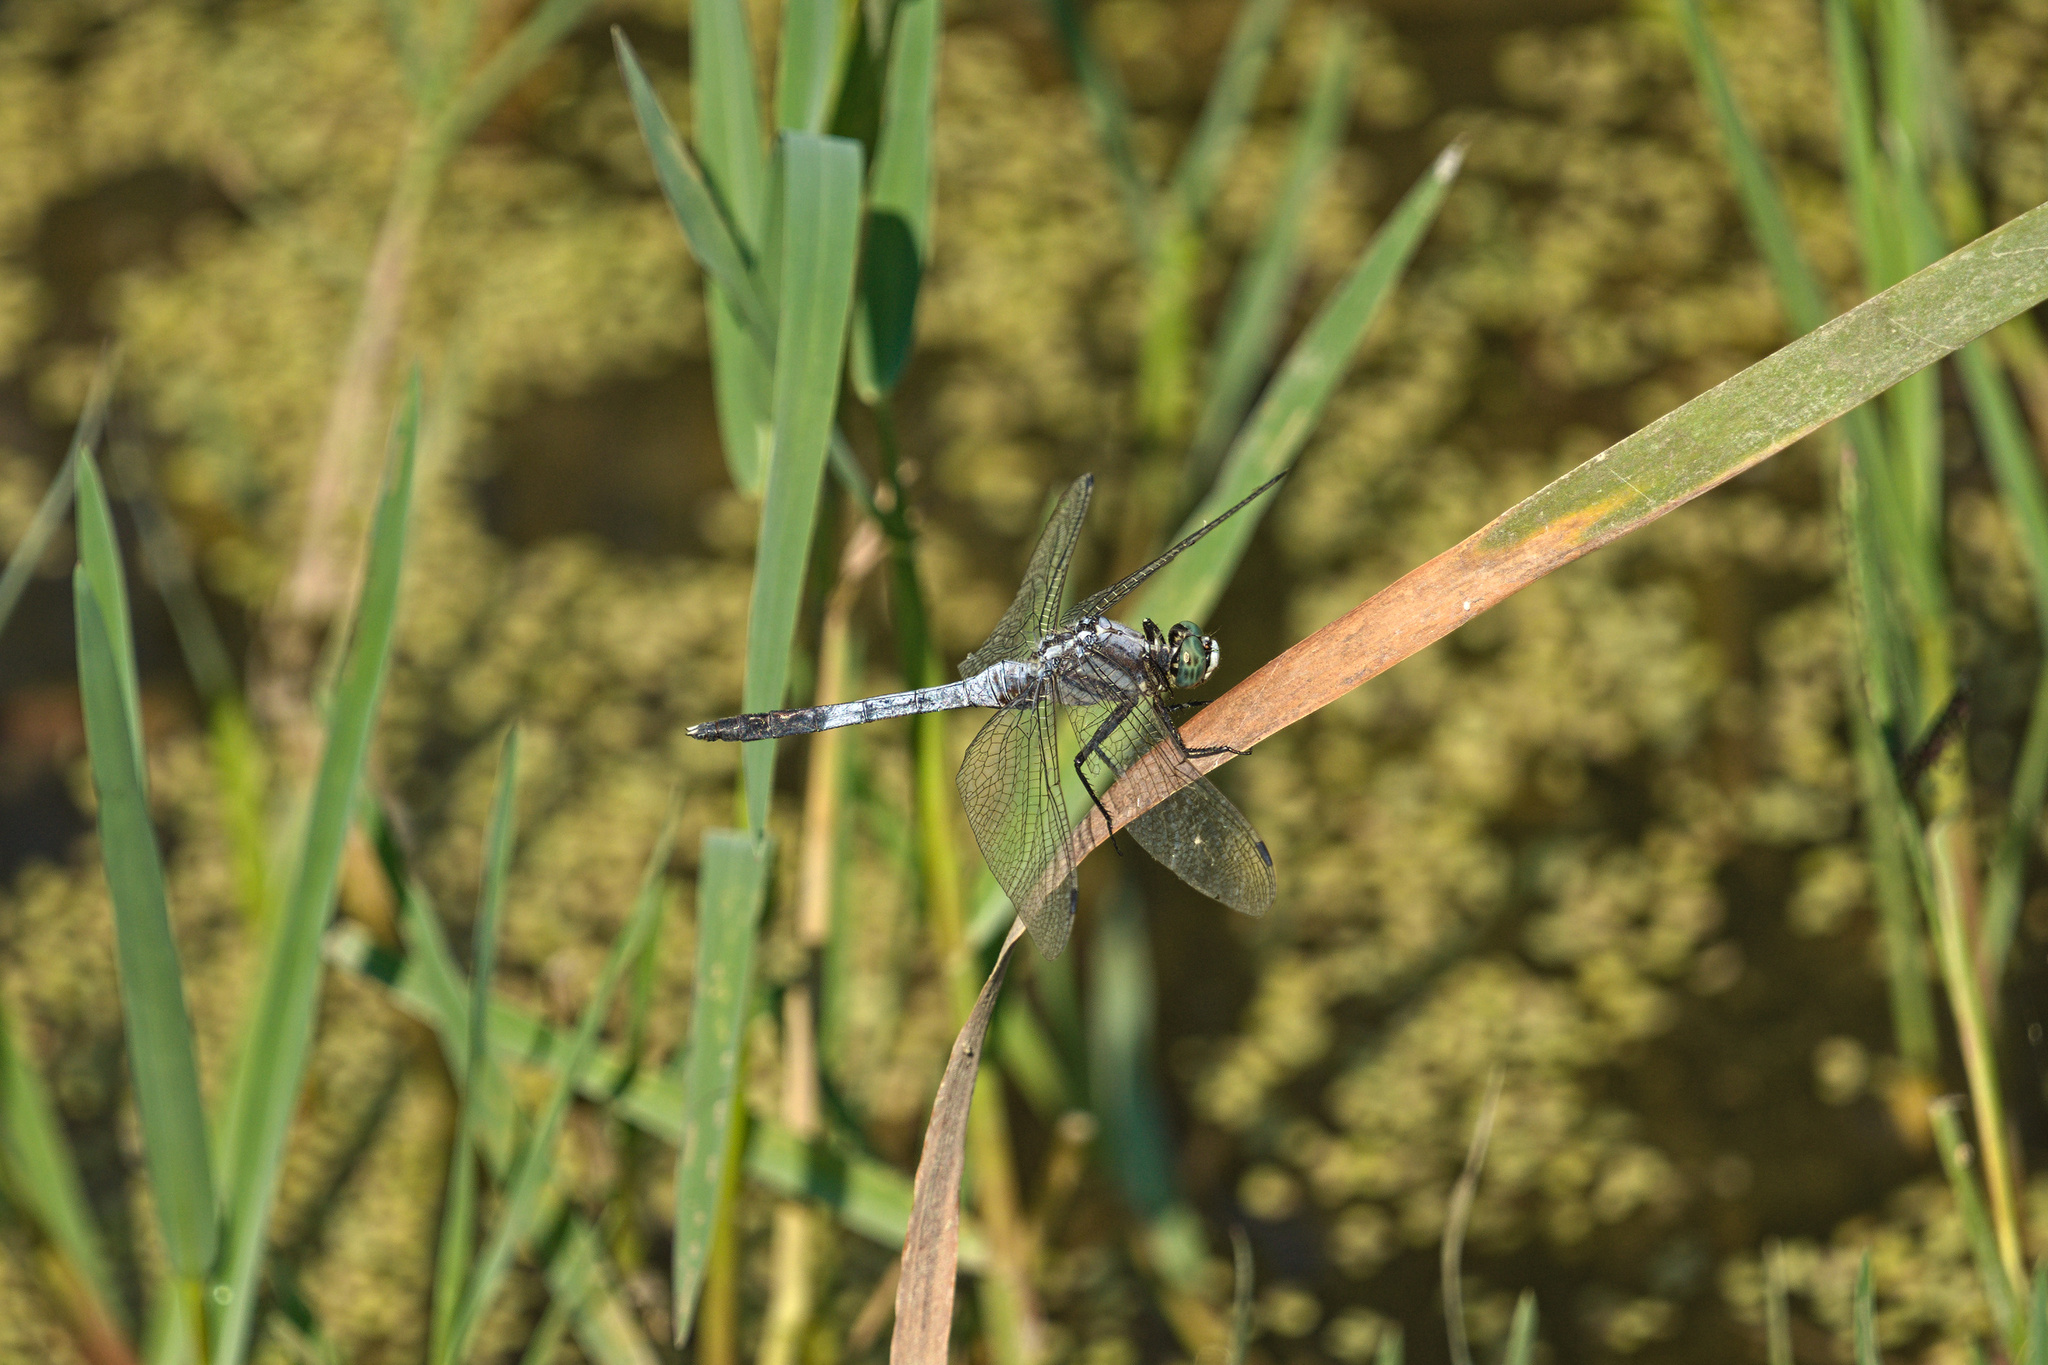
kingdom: Animalia
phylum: Arthropoda
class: Insecta
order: Odonata
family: Libellulidae
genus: Orthetrum
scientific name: Orthetrum albistylum
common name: White-tailed skimmer
